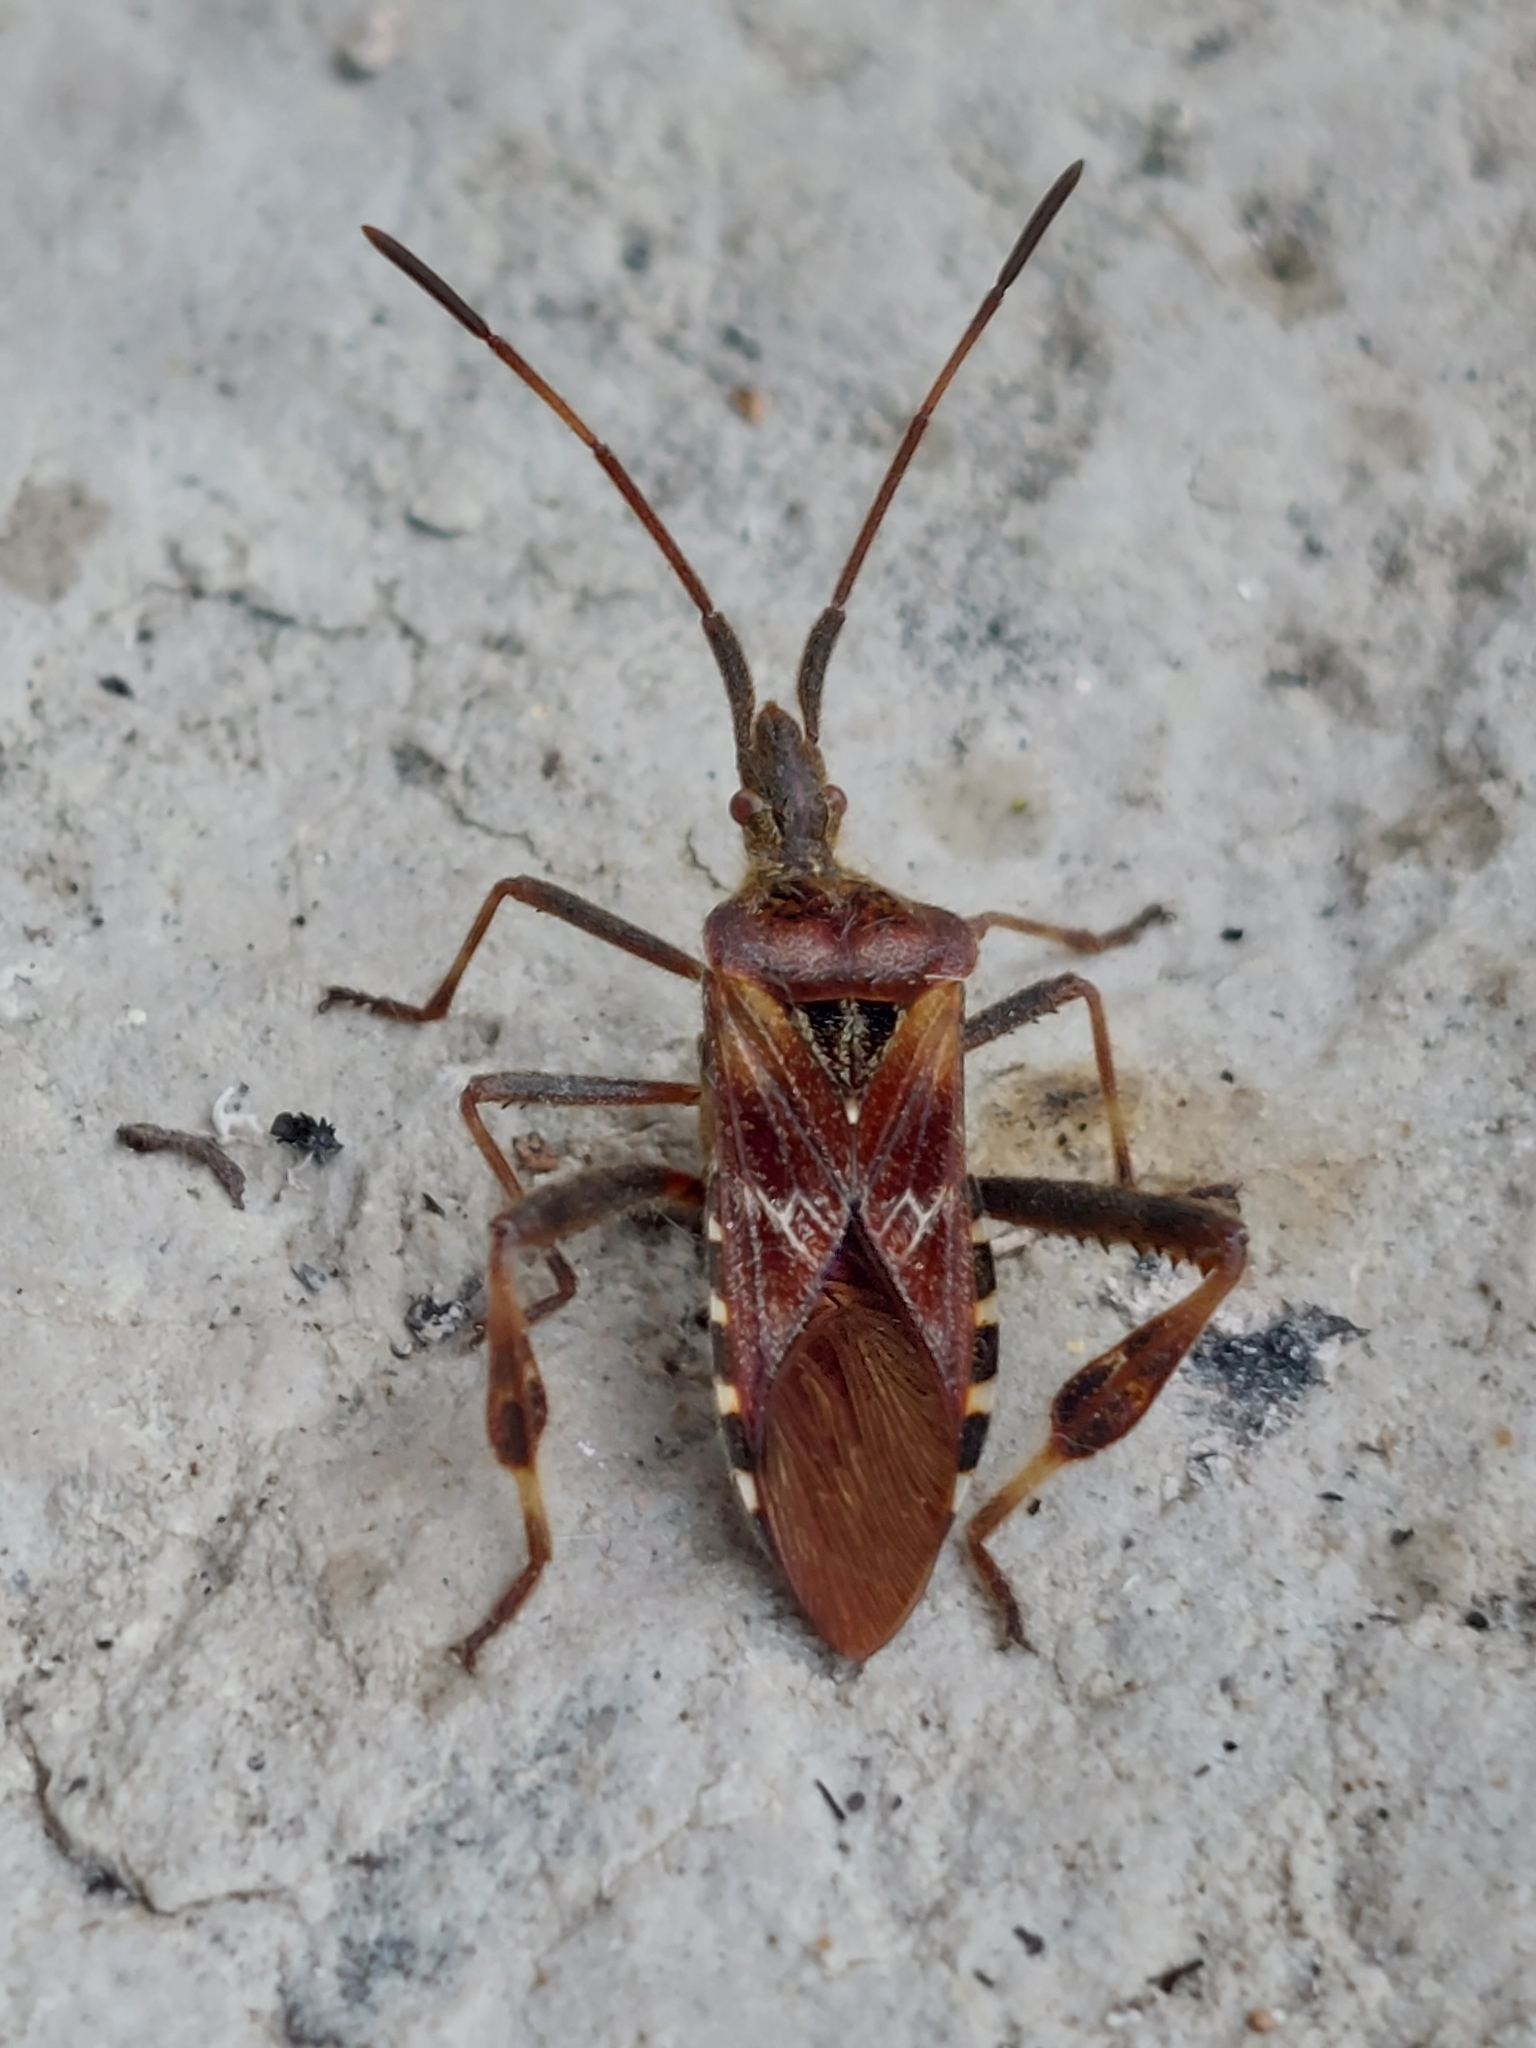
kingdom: Animalia
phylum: Arthropoda
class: Insecta
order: Hemiptera
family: Coreidae
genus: Leptoglossus
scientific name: Leptoglossus occidentalis
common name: Western conifer-seed bug
